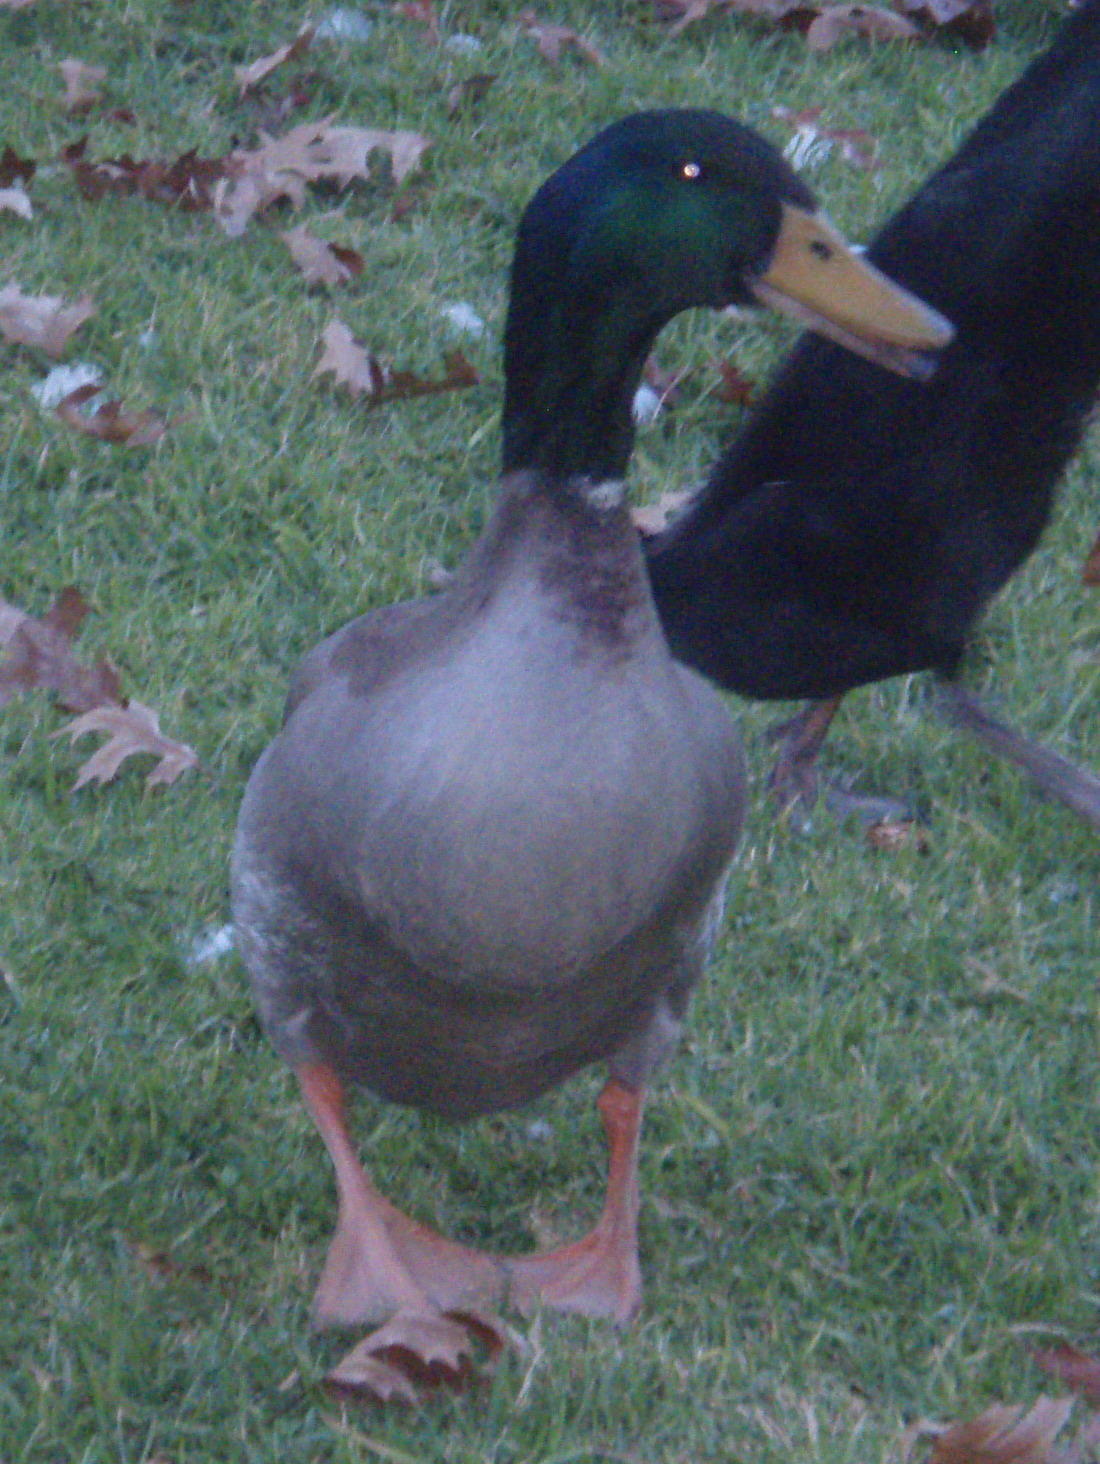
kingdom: Animalia
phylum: Chordata
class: Aves
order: Anseriformes
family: Anatidae
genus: Anas
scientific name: Anas platyrhynchos
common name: Mallard
